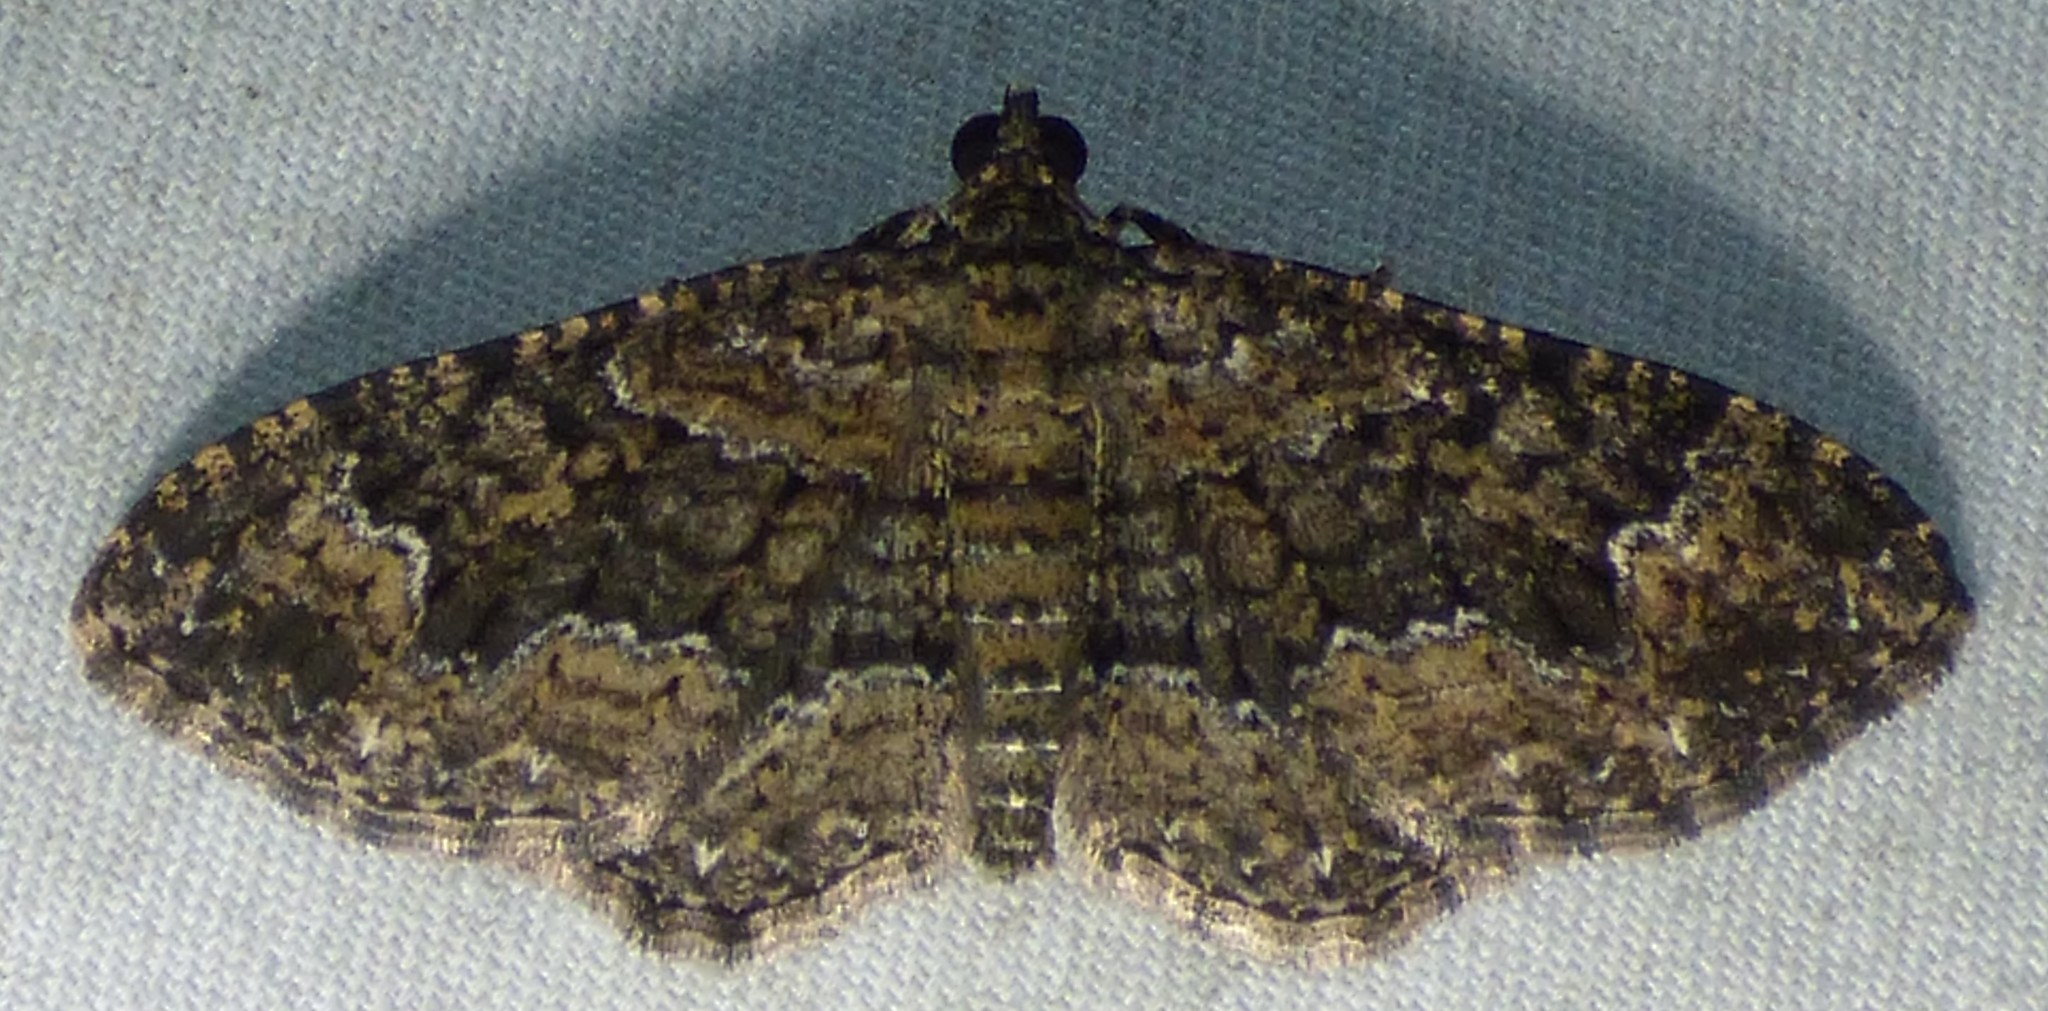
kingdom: Animalia
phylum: Arthropoda
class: Insecta
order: Lepidoptera
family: Geometridae
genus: Disclisioprocta
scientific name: Disclisioprocta stellata
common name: Somber carpet
